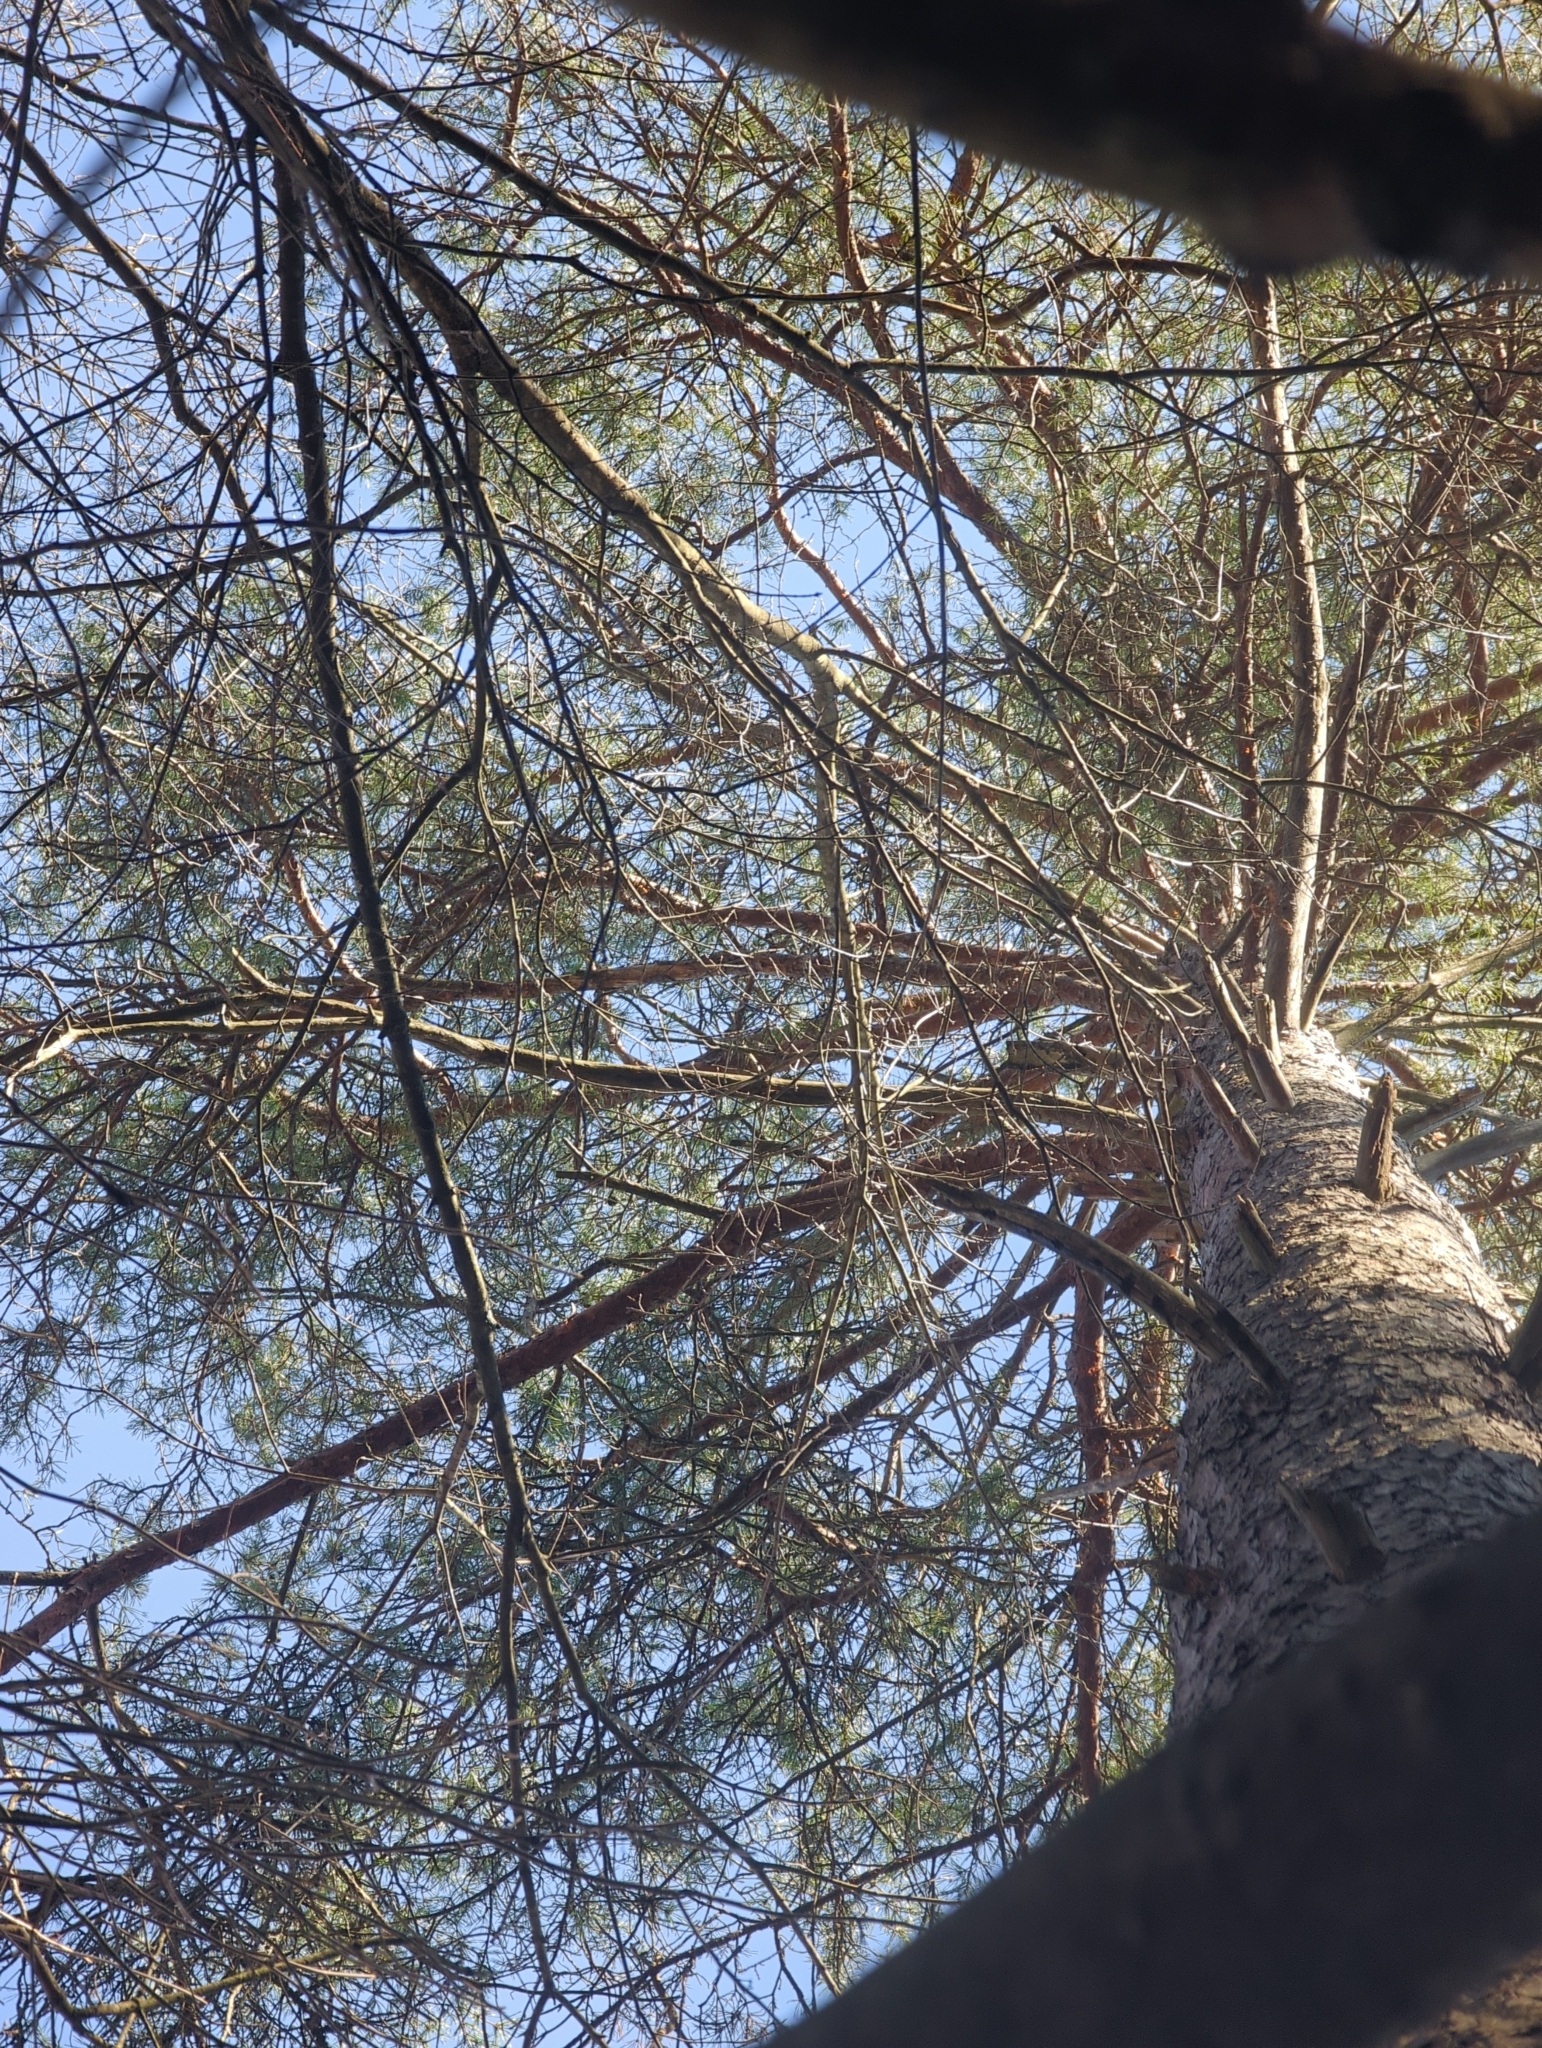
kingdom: Plantae
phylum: Tracheophyta
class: Pinopsida
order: Pinales
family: Pinaceae
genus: Pinus
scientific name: Pinus sylvestris
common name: Scots pine
